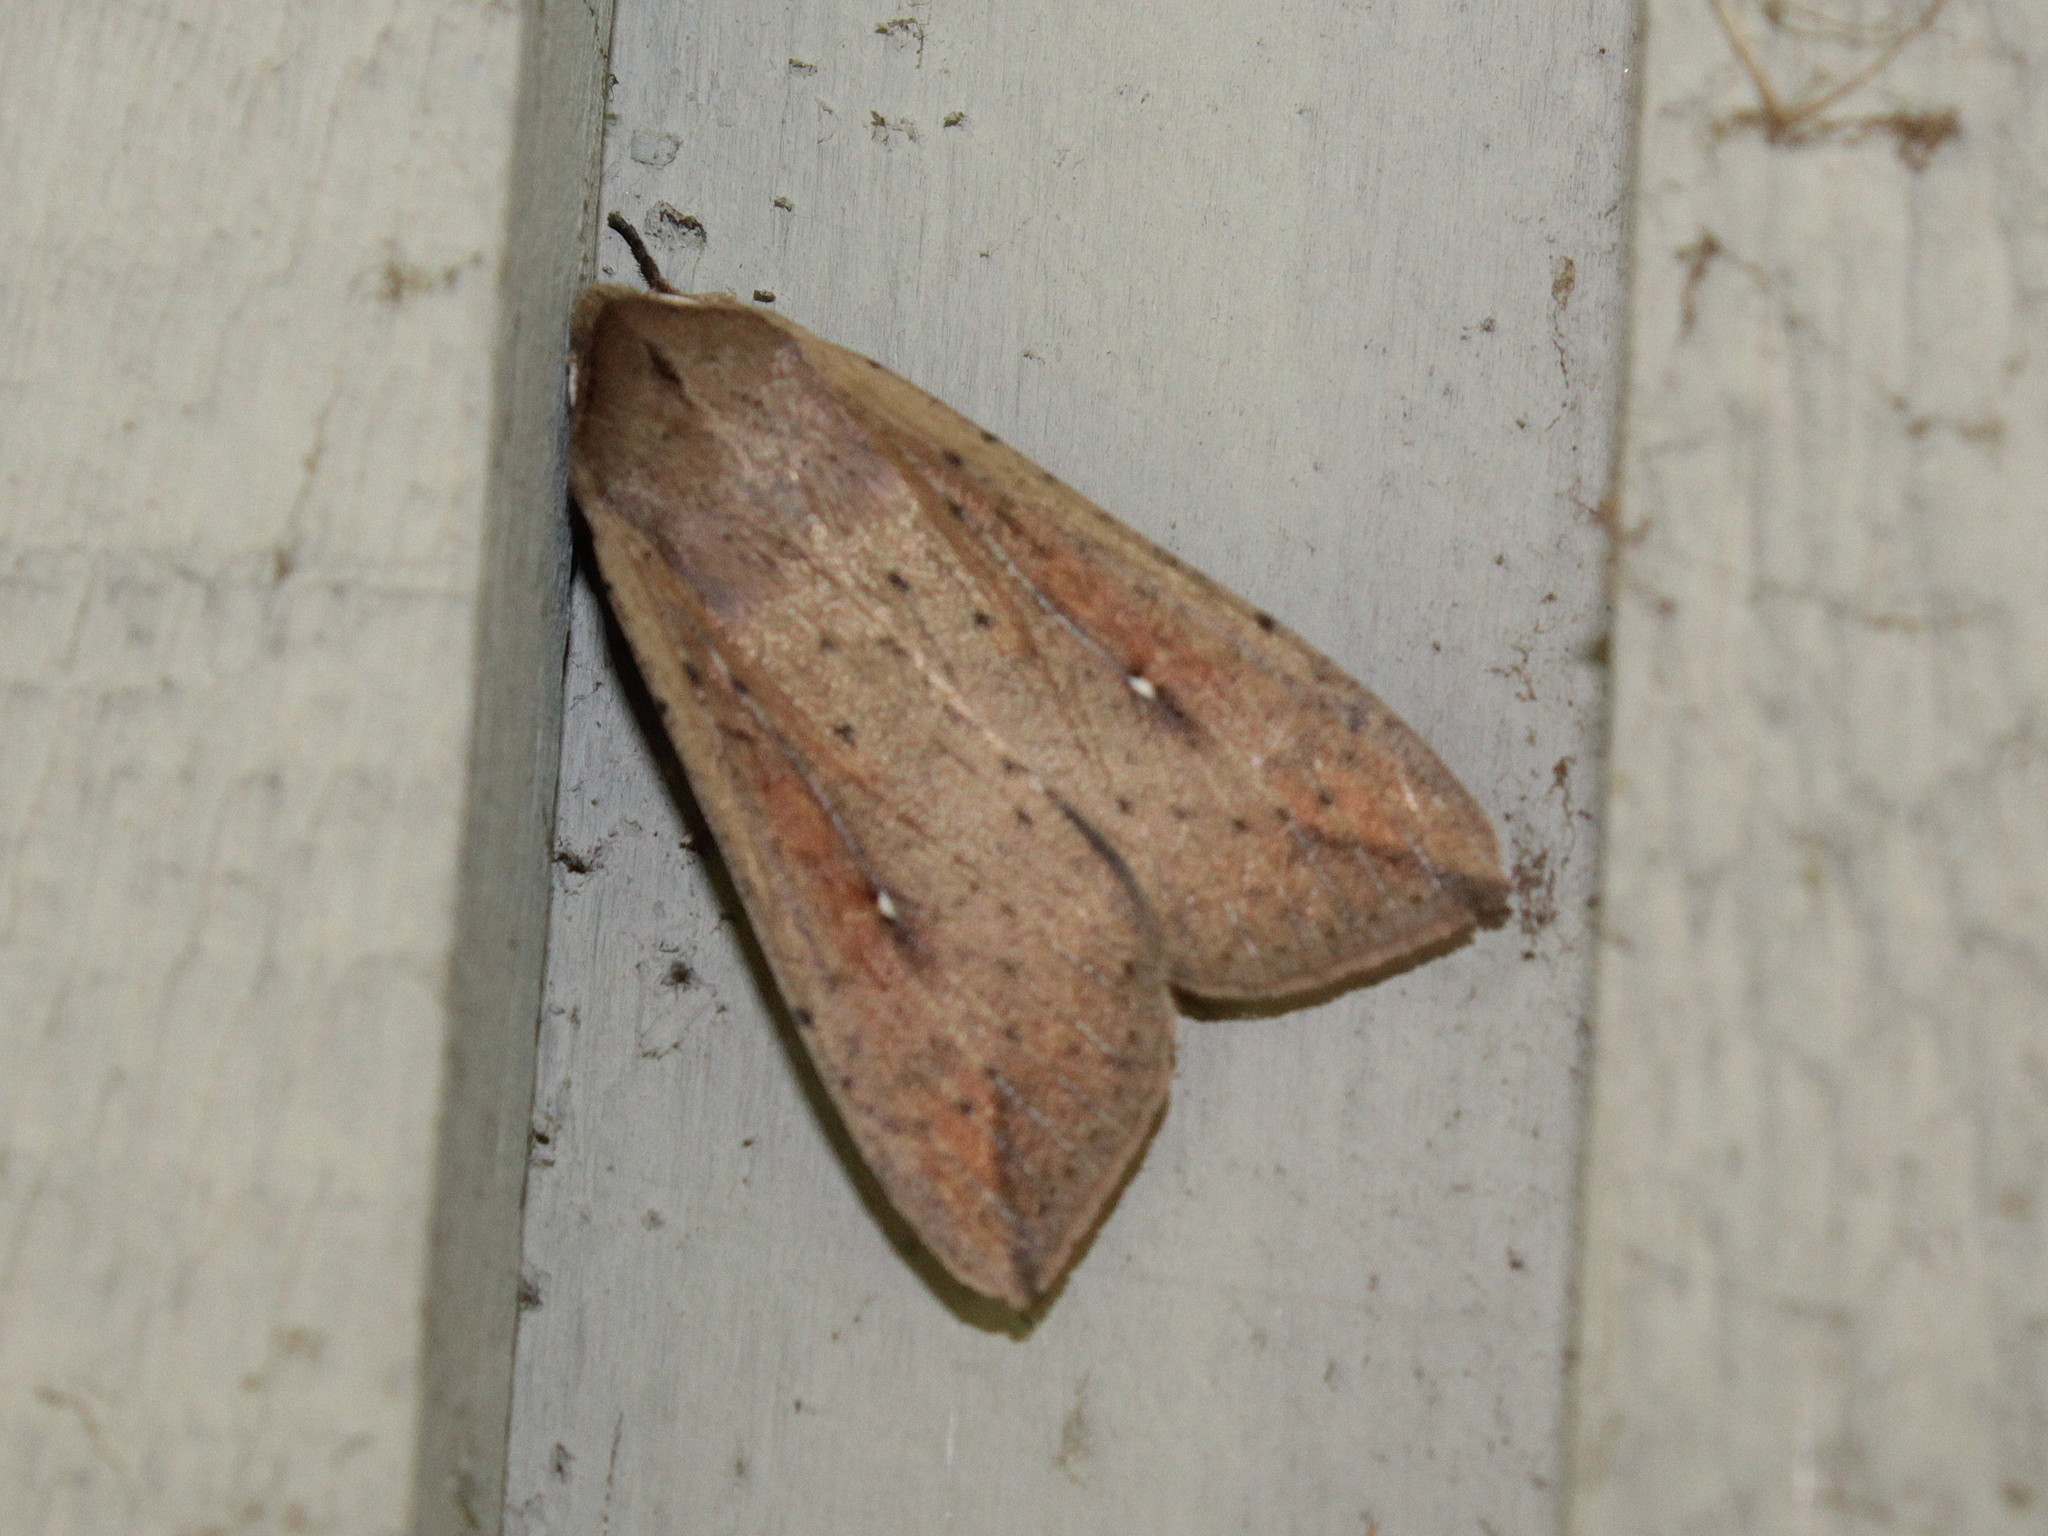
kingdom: Animalia
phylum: Arthropoda
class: Insecta
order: Lepidoptera
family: Noctuidae
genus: Mythimna
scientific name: Mythimna unipuncta
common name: White-speck
